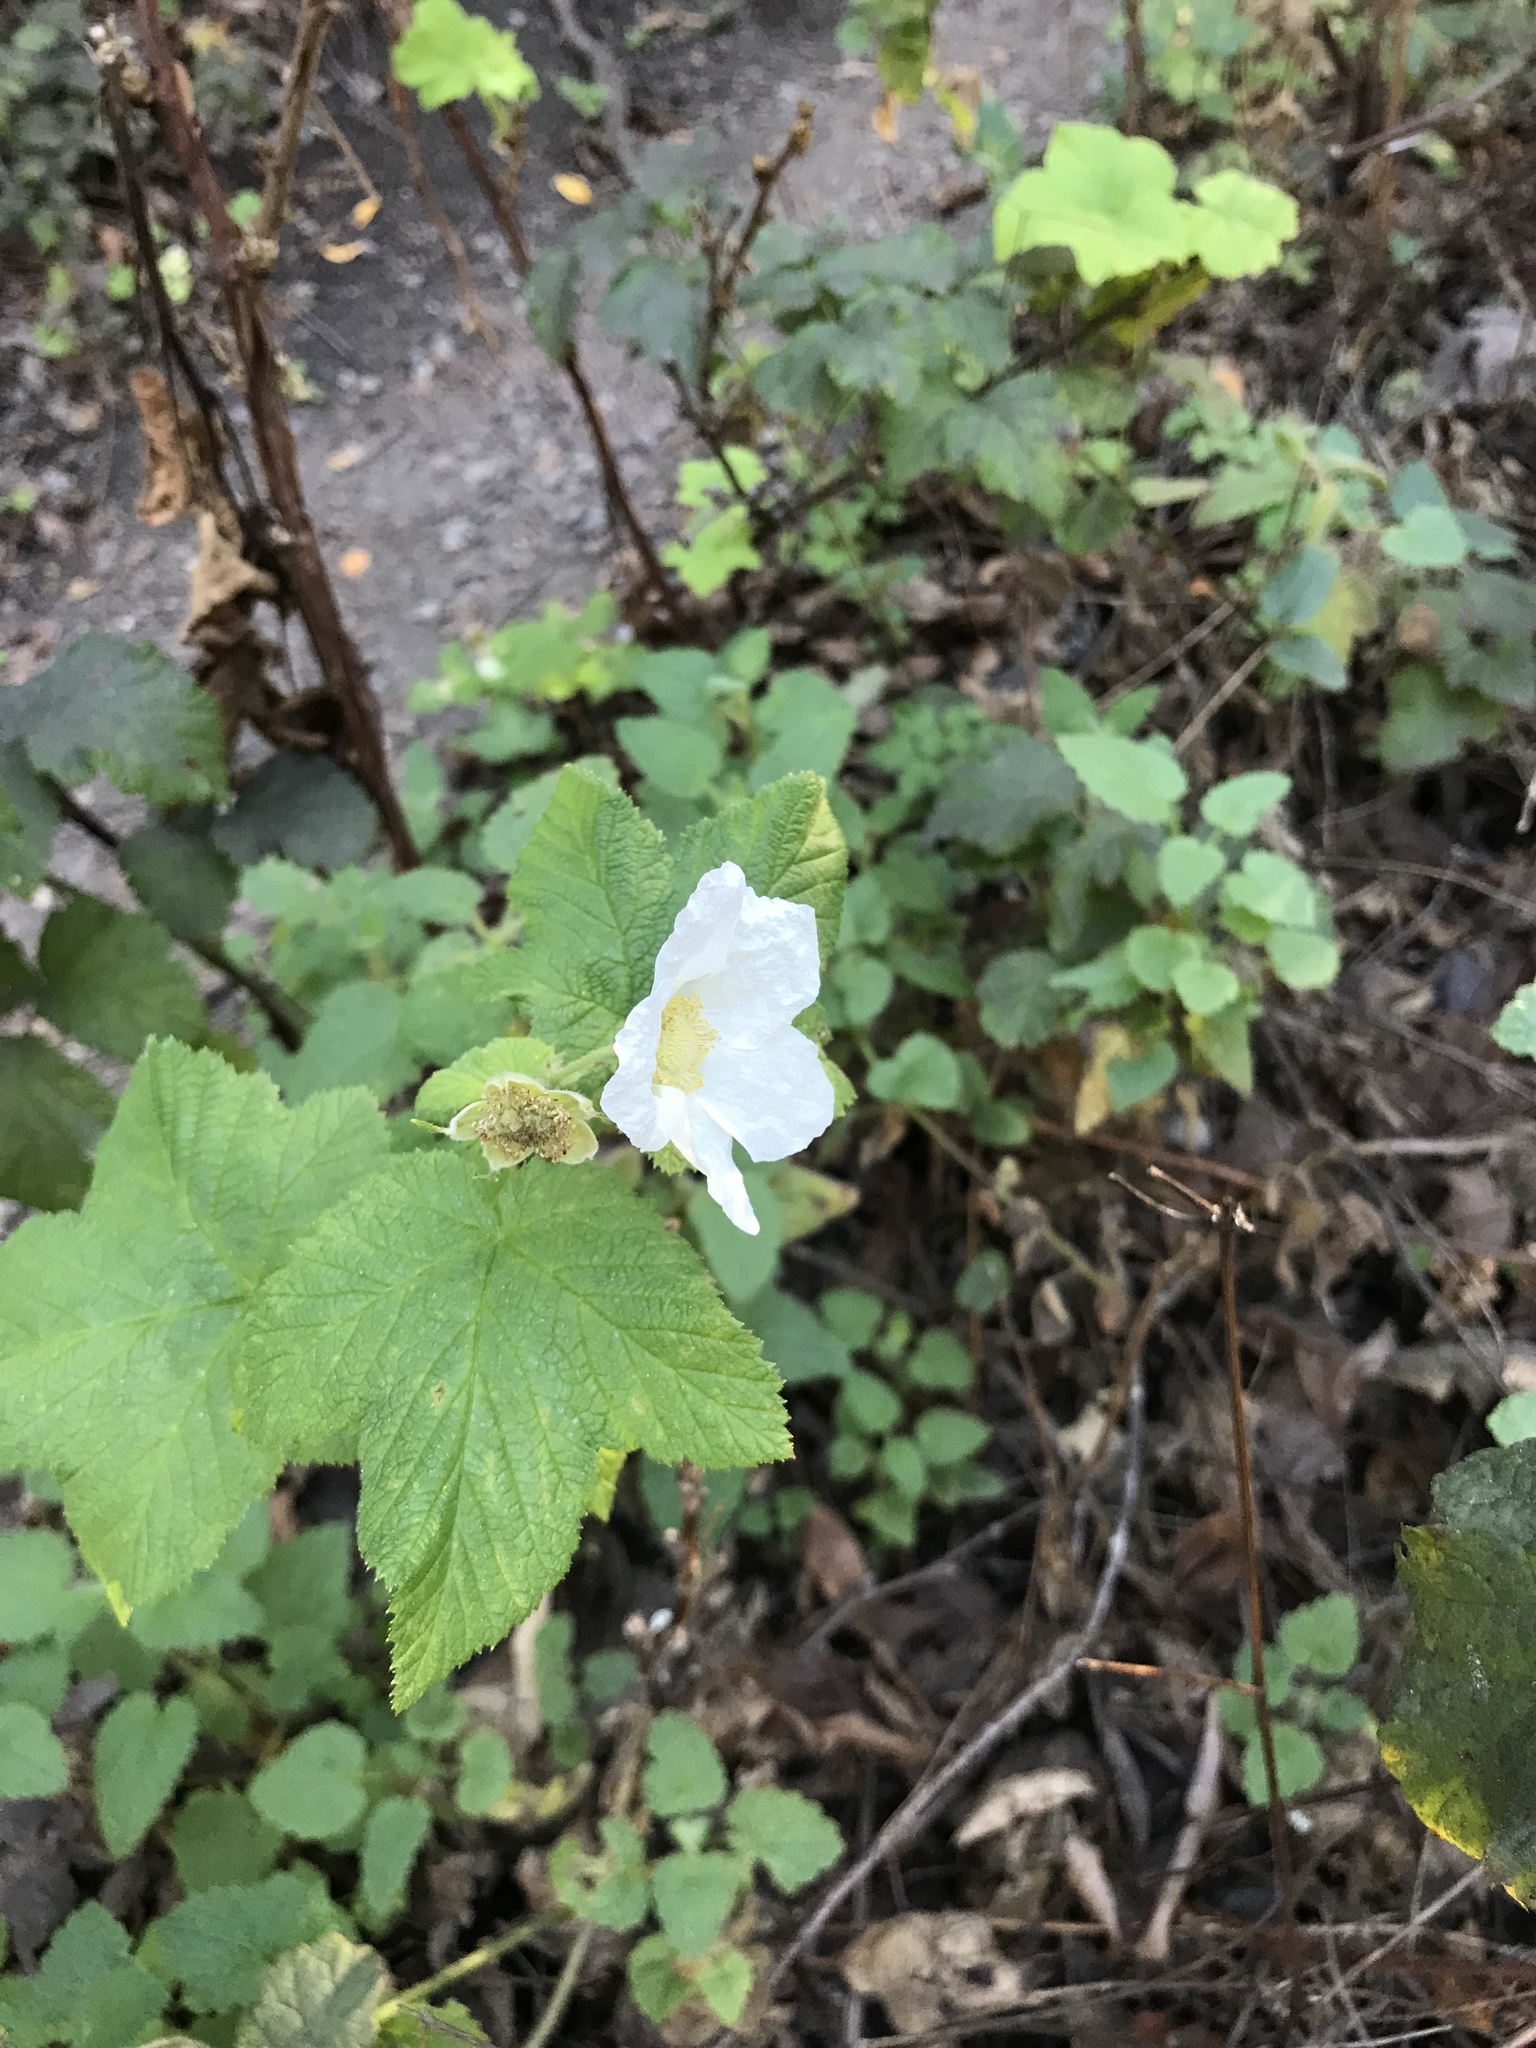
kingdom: Plantae
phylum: Tracheophyta
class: Magnoliopsida
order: Rosales
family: Rosaceae
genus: Rubus
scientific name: Rubus parviflorus
